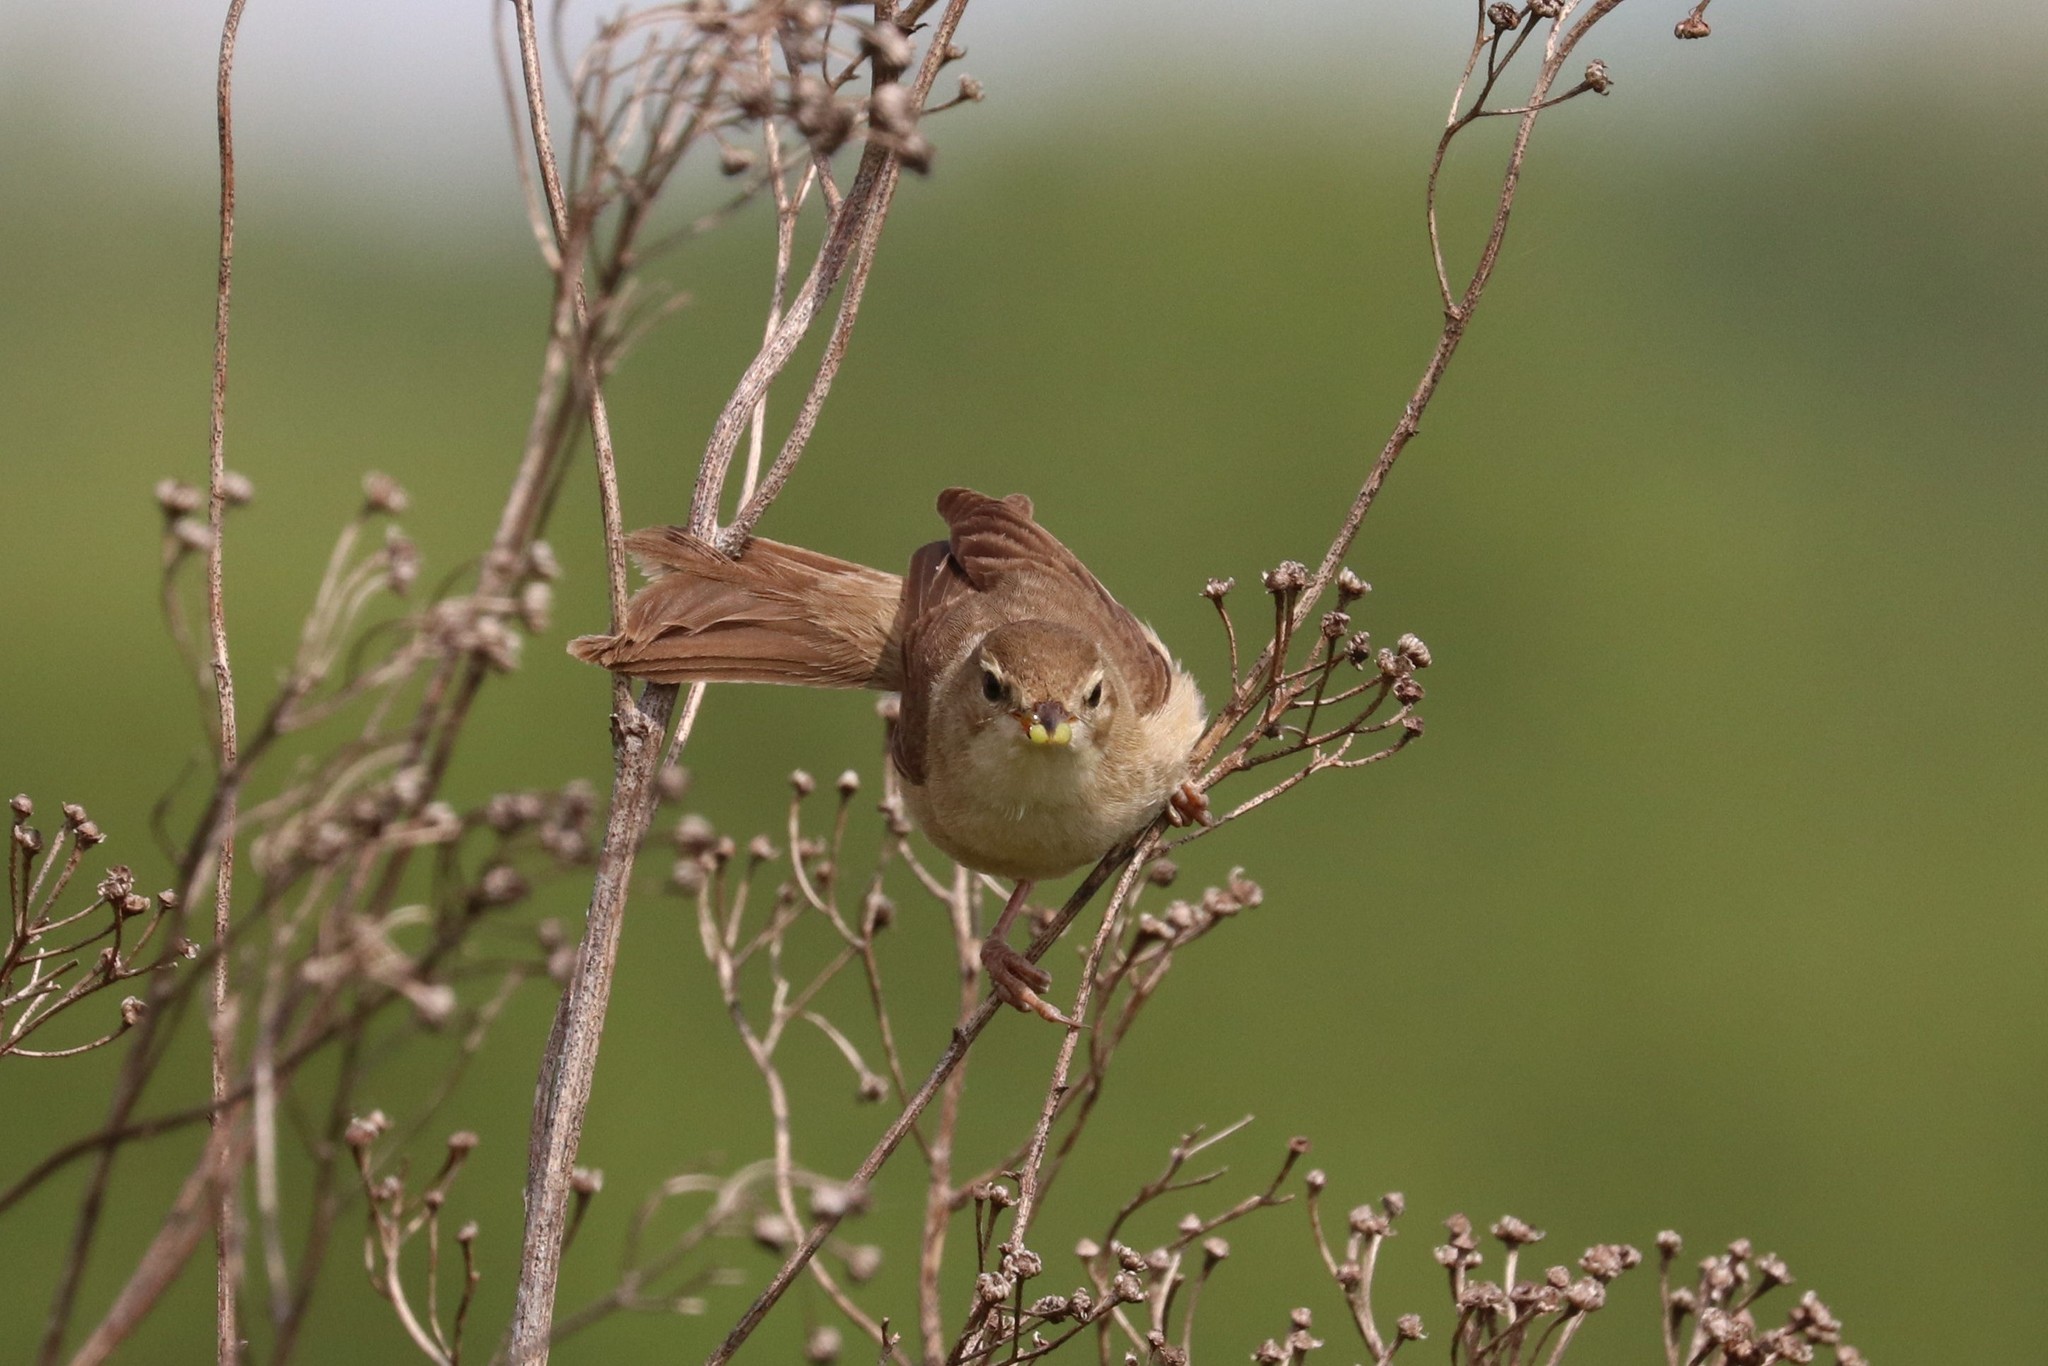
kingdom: Animalia
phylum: Chordata
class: Aves
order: Passeriformes
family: Acrocephalidae
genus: Iduna
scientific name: Iduna caligata
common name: Booted warbler
